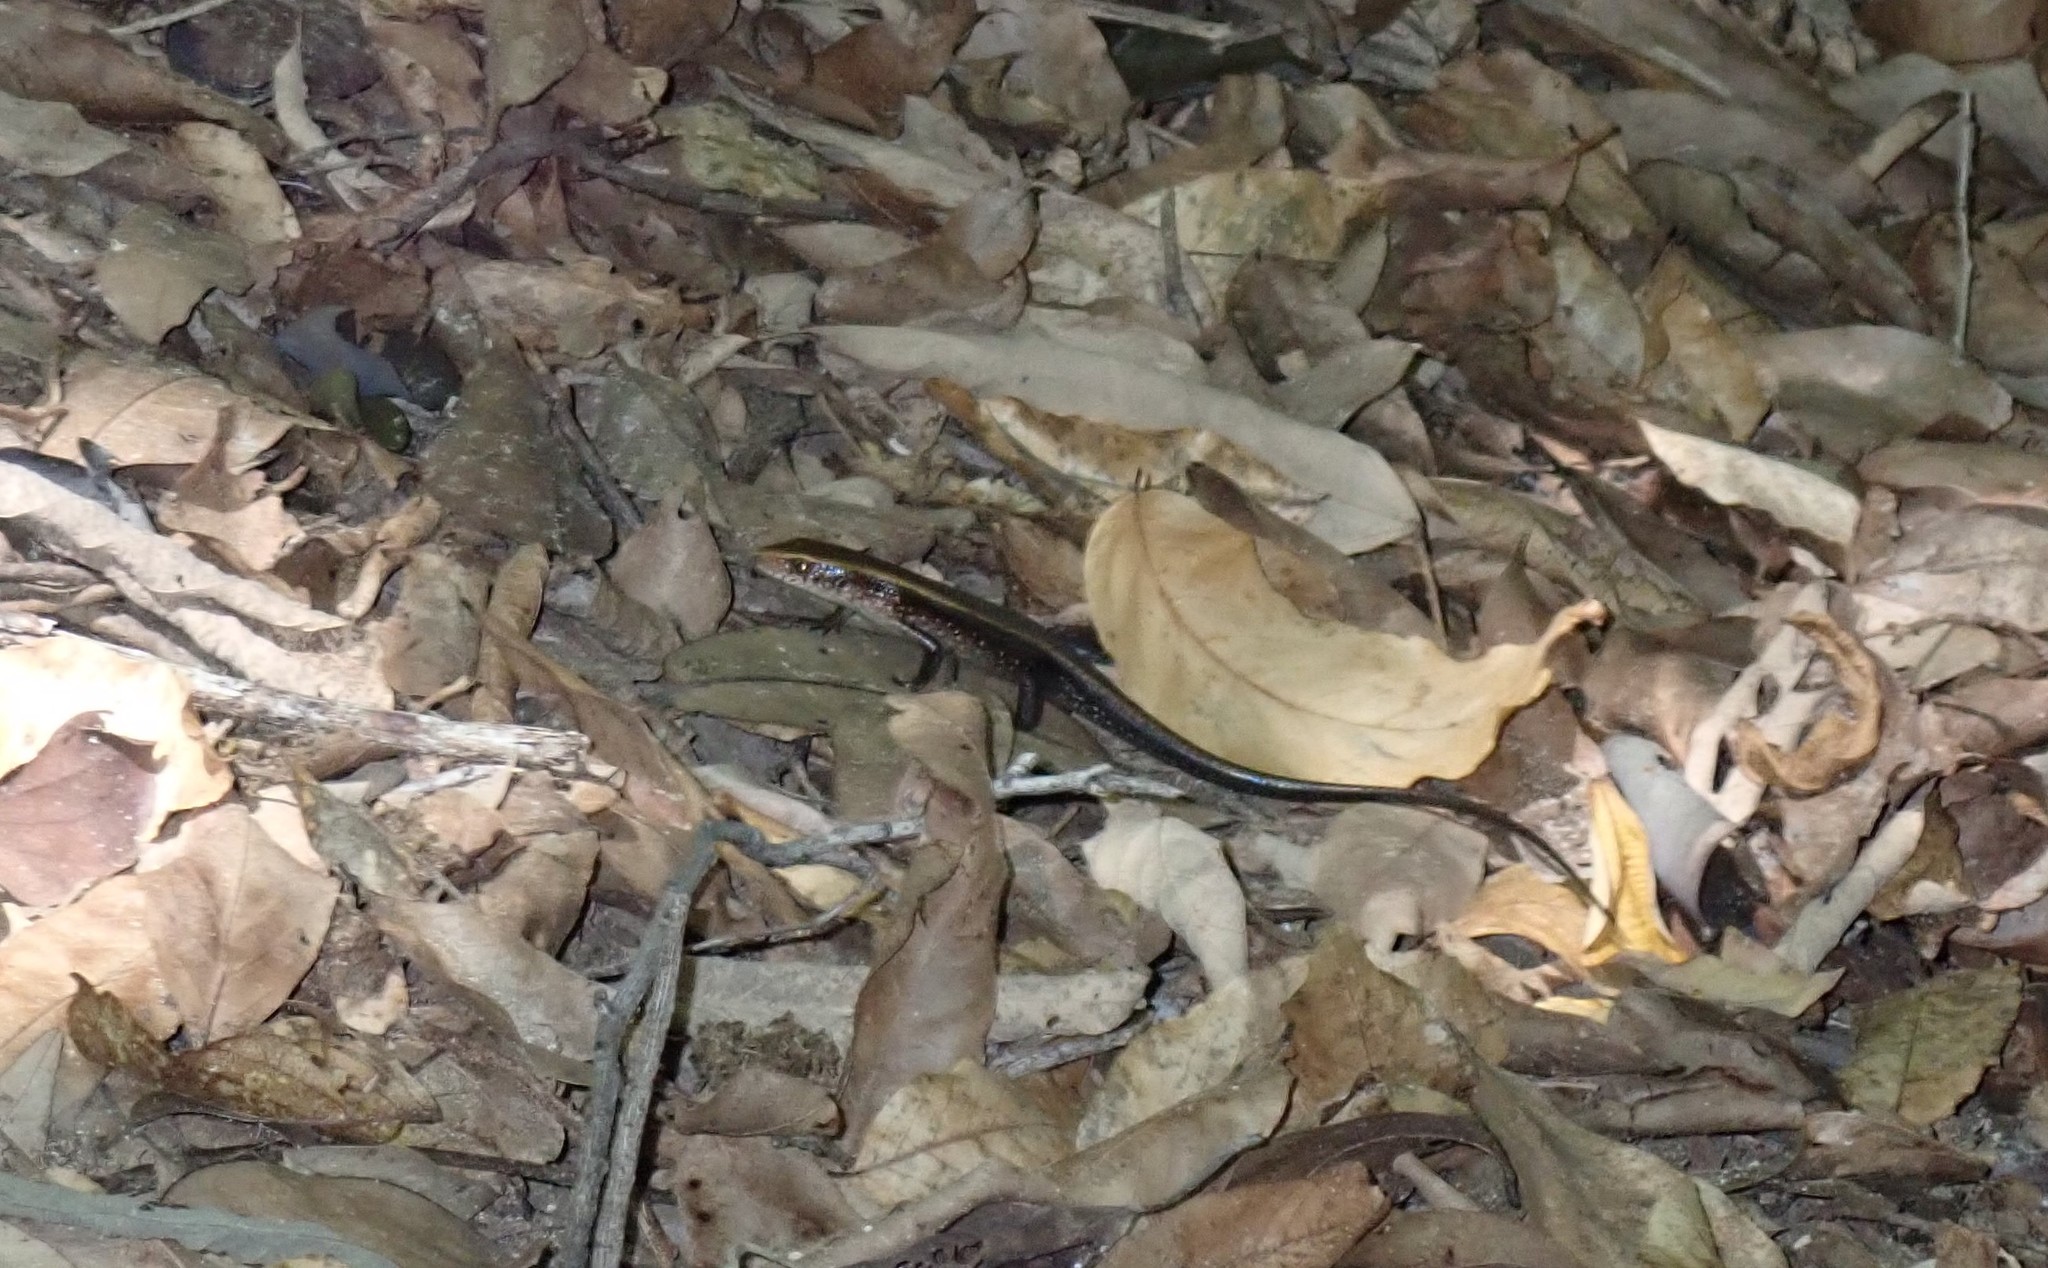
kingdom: Animalia
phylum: Chordata
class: Squamata
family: Scincidae
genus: Eutropis
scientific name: Eutropis multifasciata
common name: Common mabuya
